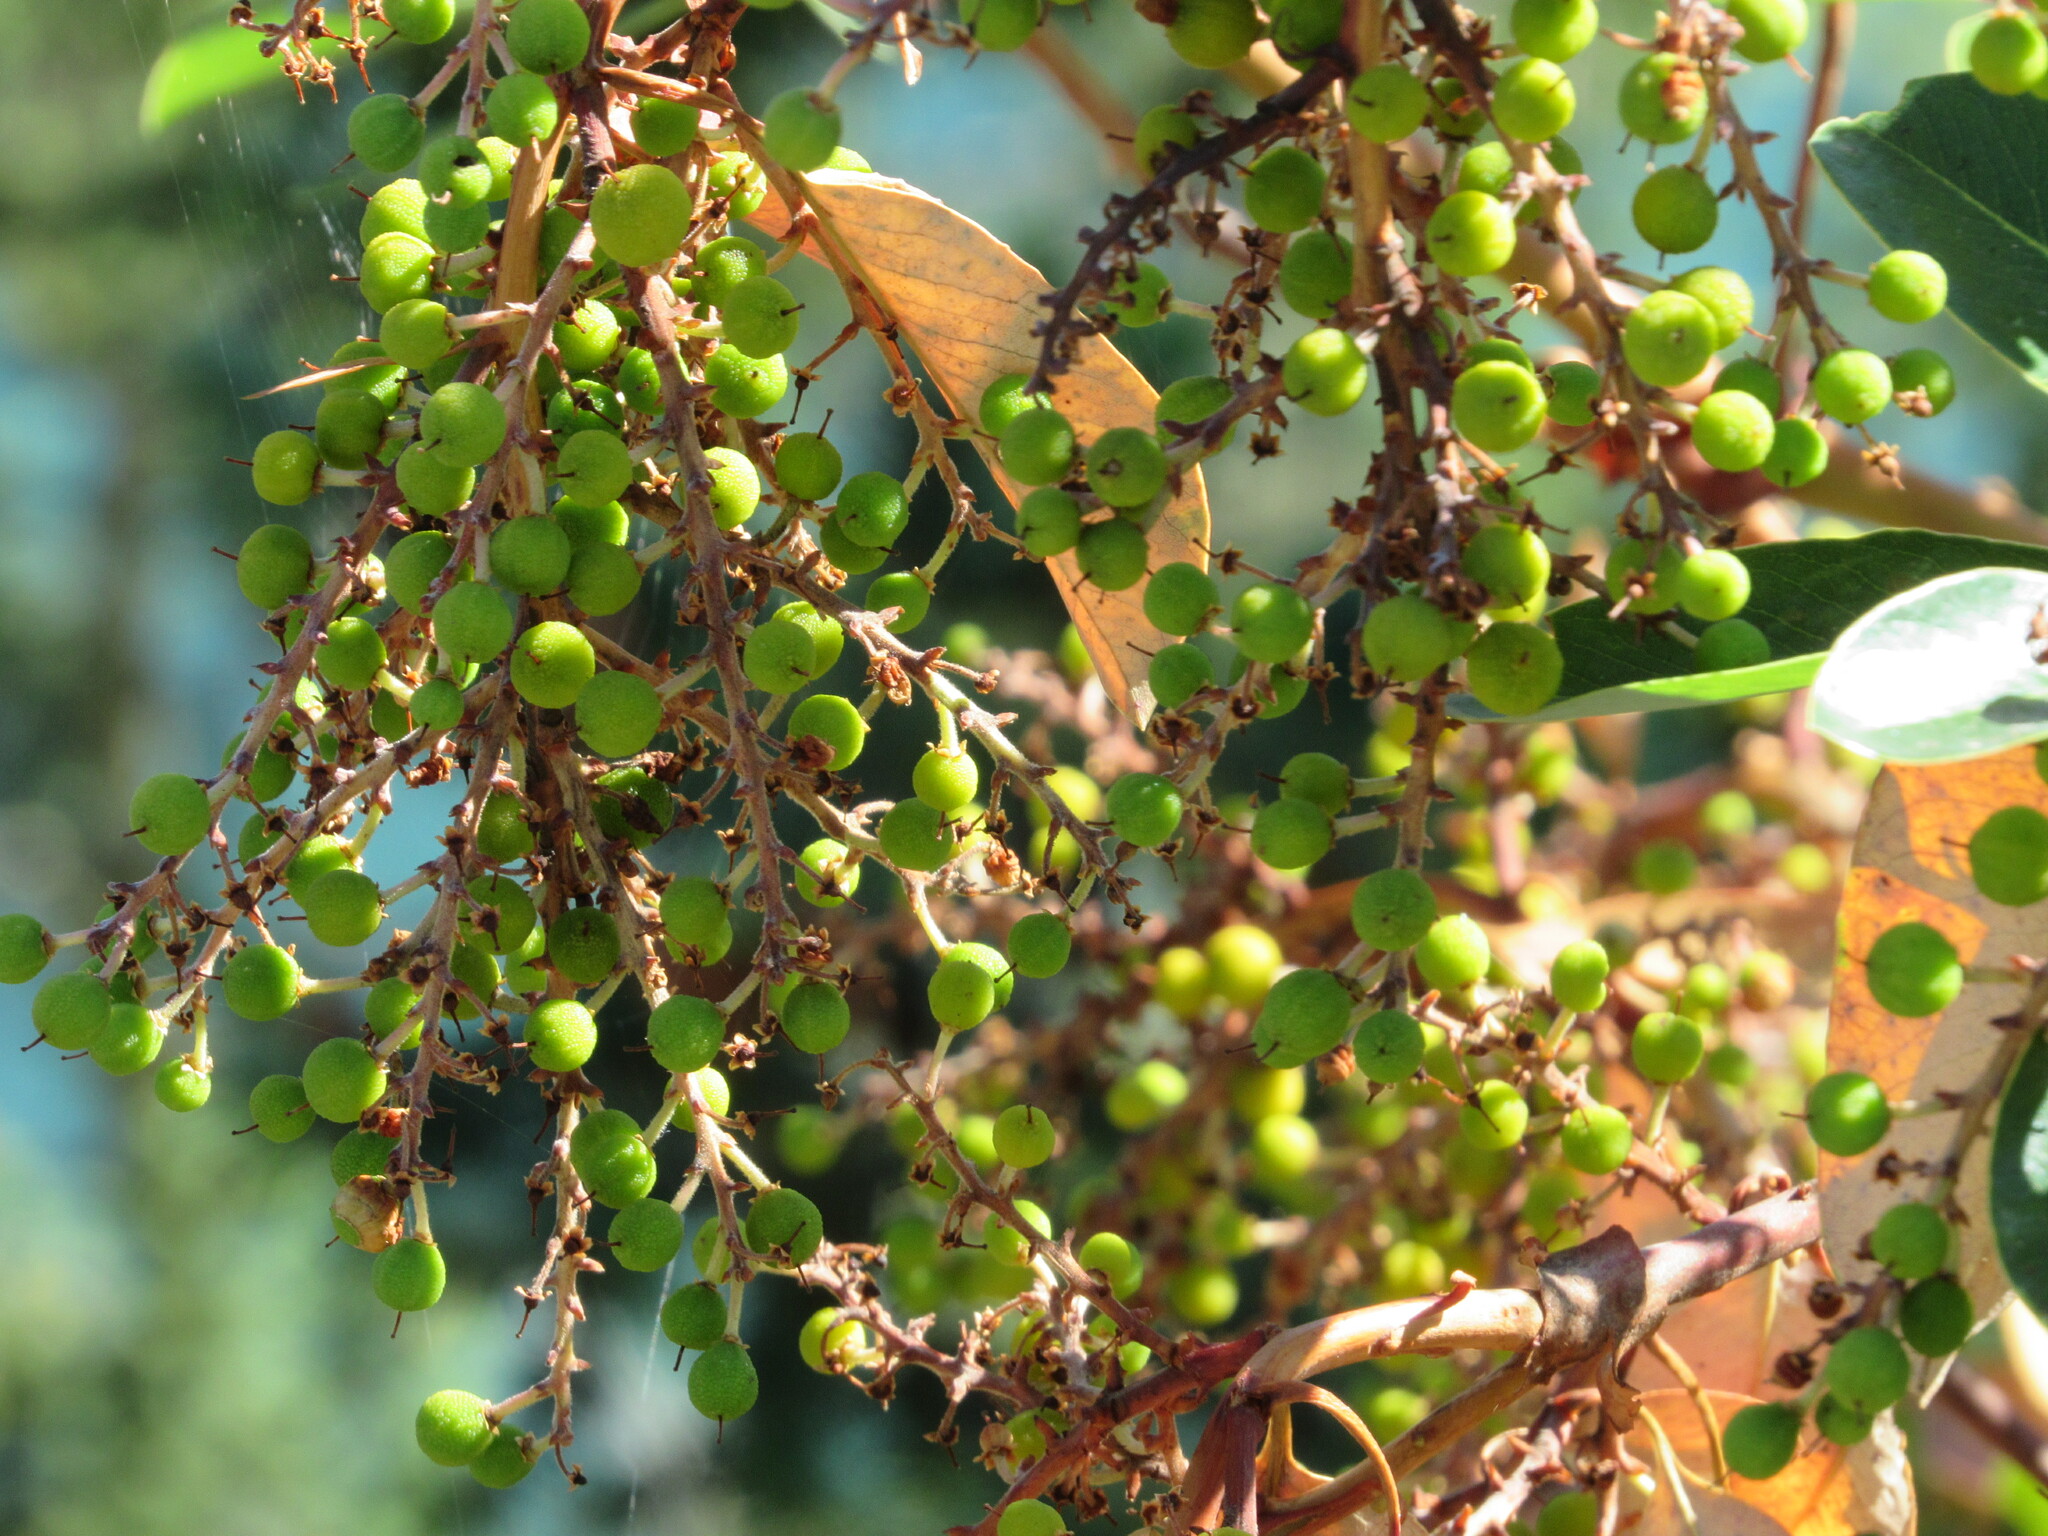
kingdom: Plantae
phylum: Tracheophyta
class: Magnoliopsida
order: Ericales
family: Ericaceae
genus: Arbutus
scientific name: Arbutus menziesii
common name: Pacific madrone
